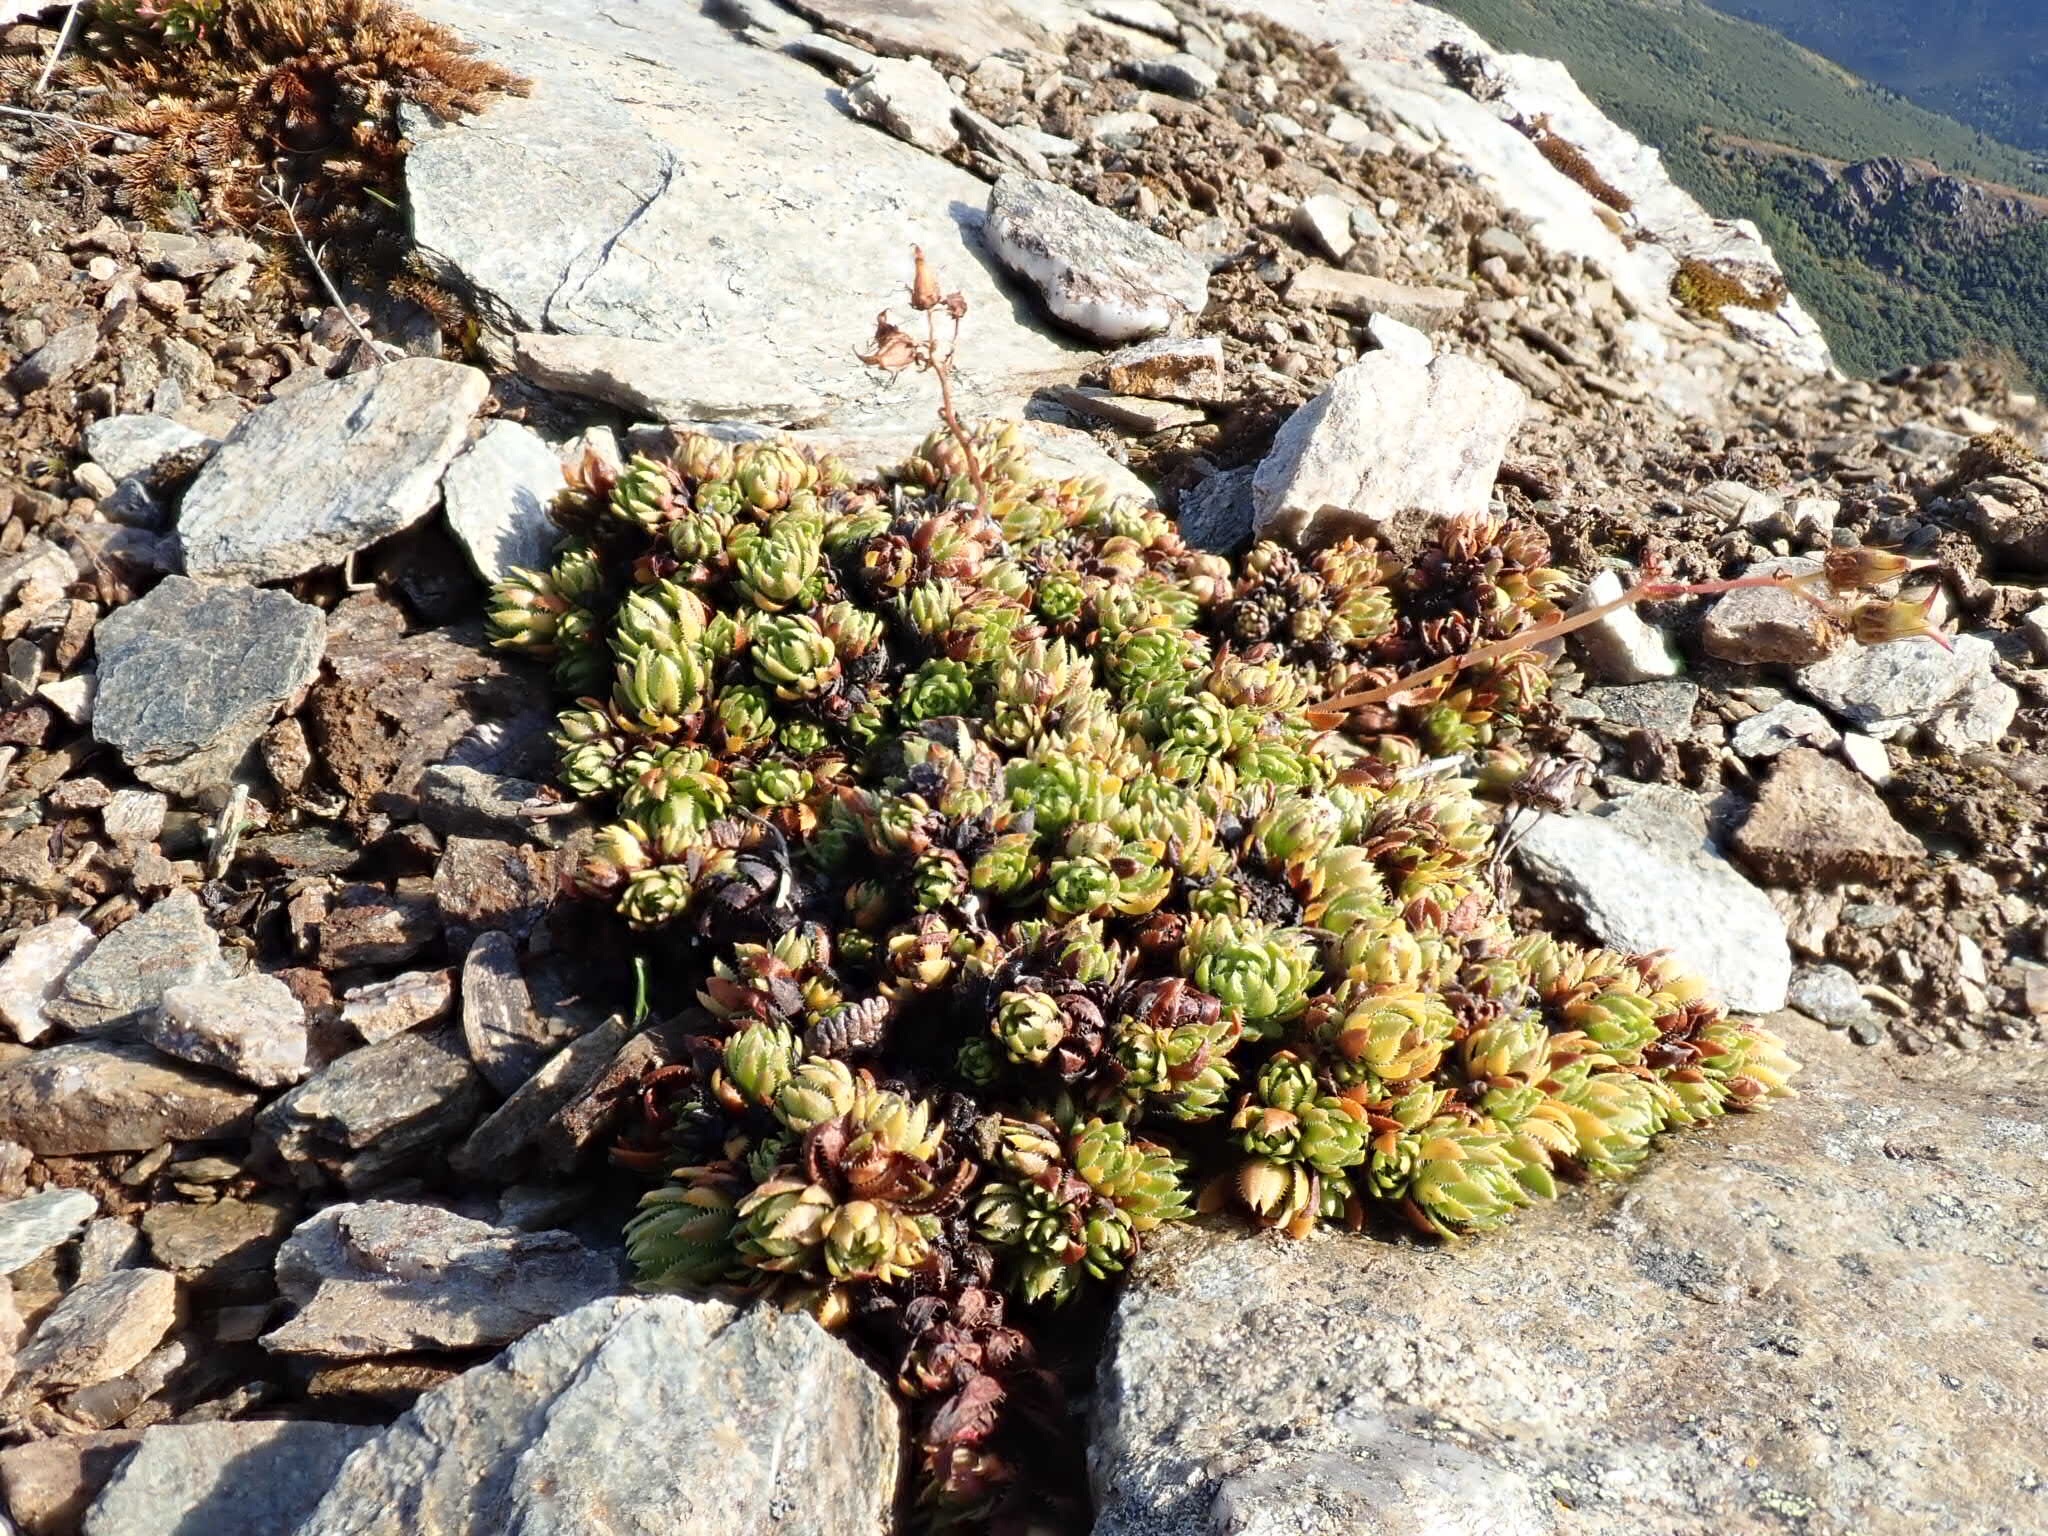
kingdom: Plantae
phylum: Tracheophyta
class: Magnoliopsida
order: Saxifragales
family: Saxifragaceae
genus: Saxifraga
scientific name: Saxifraga bronchialis
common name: Matted saxifrage
